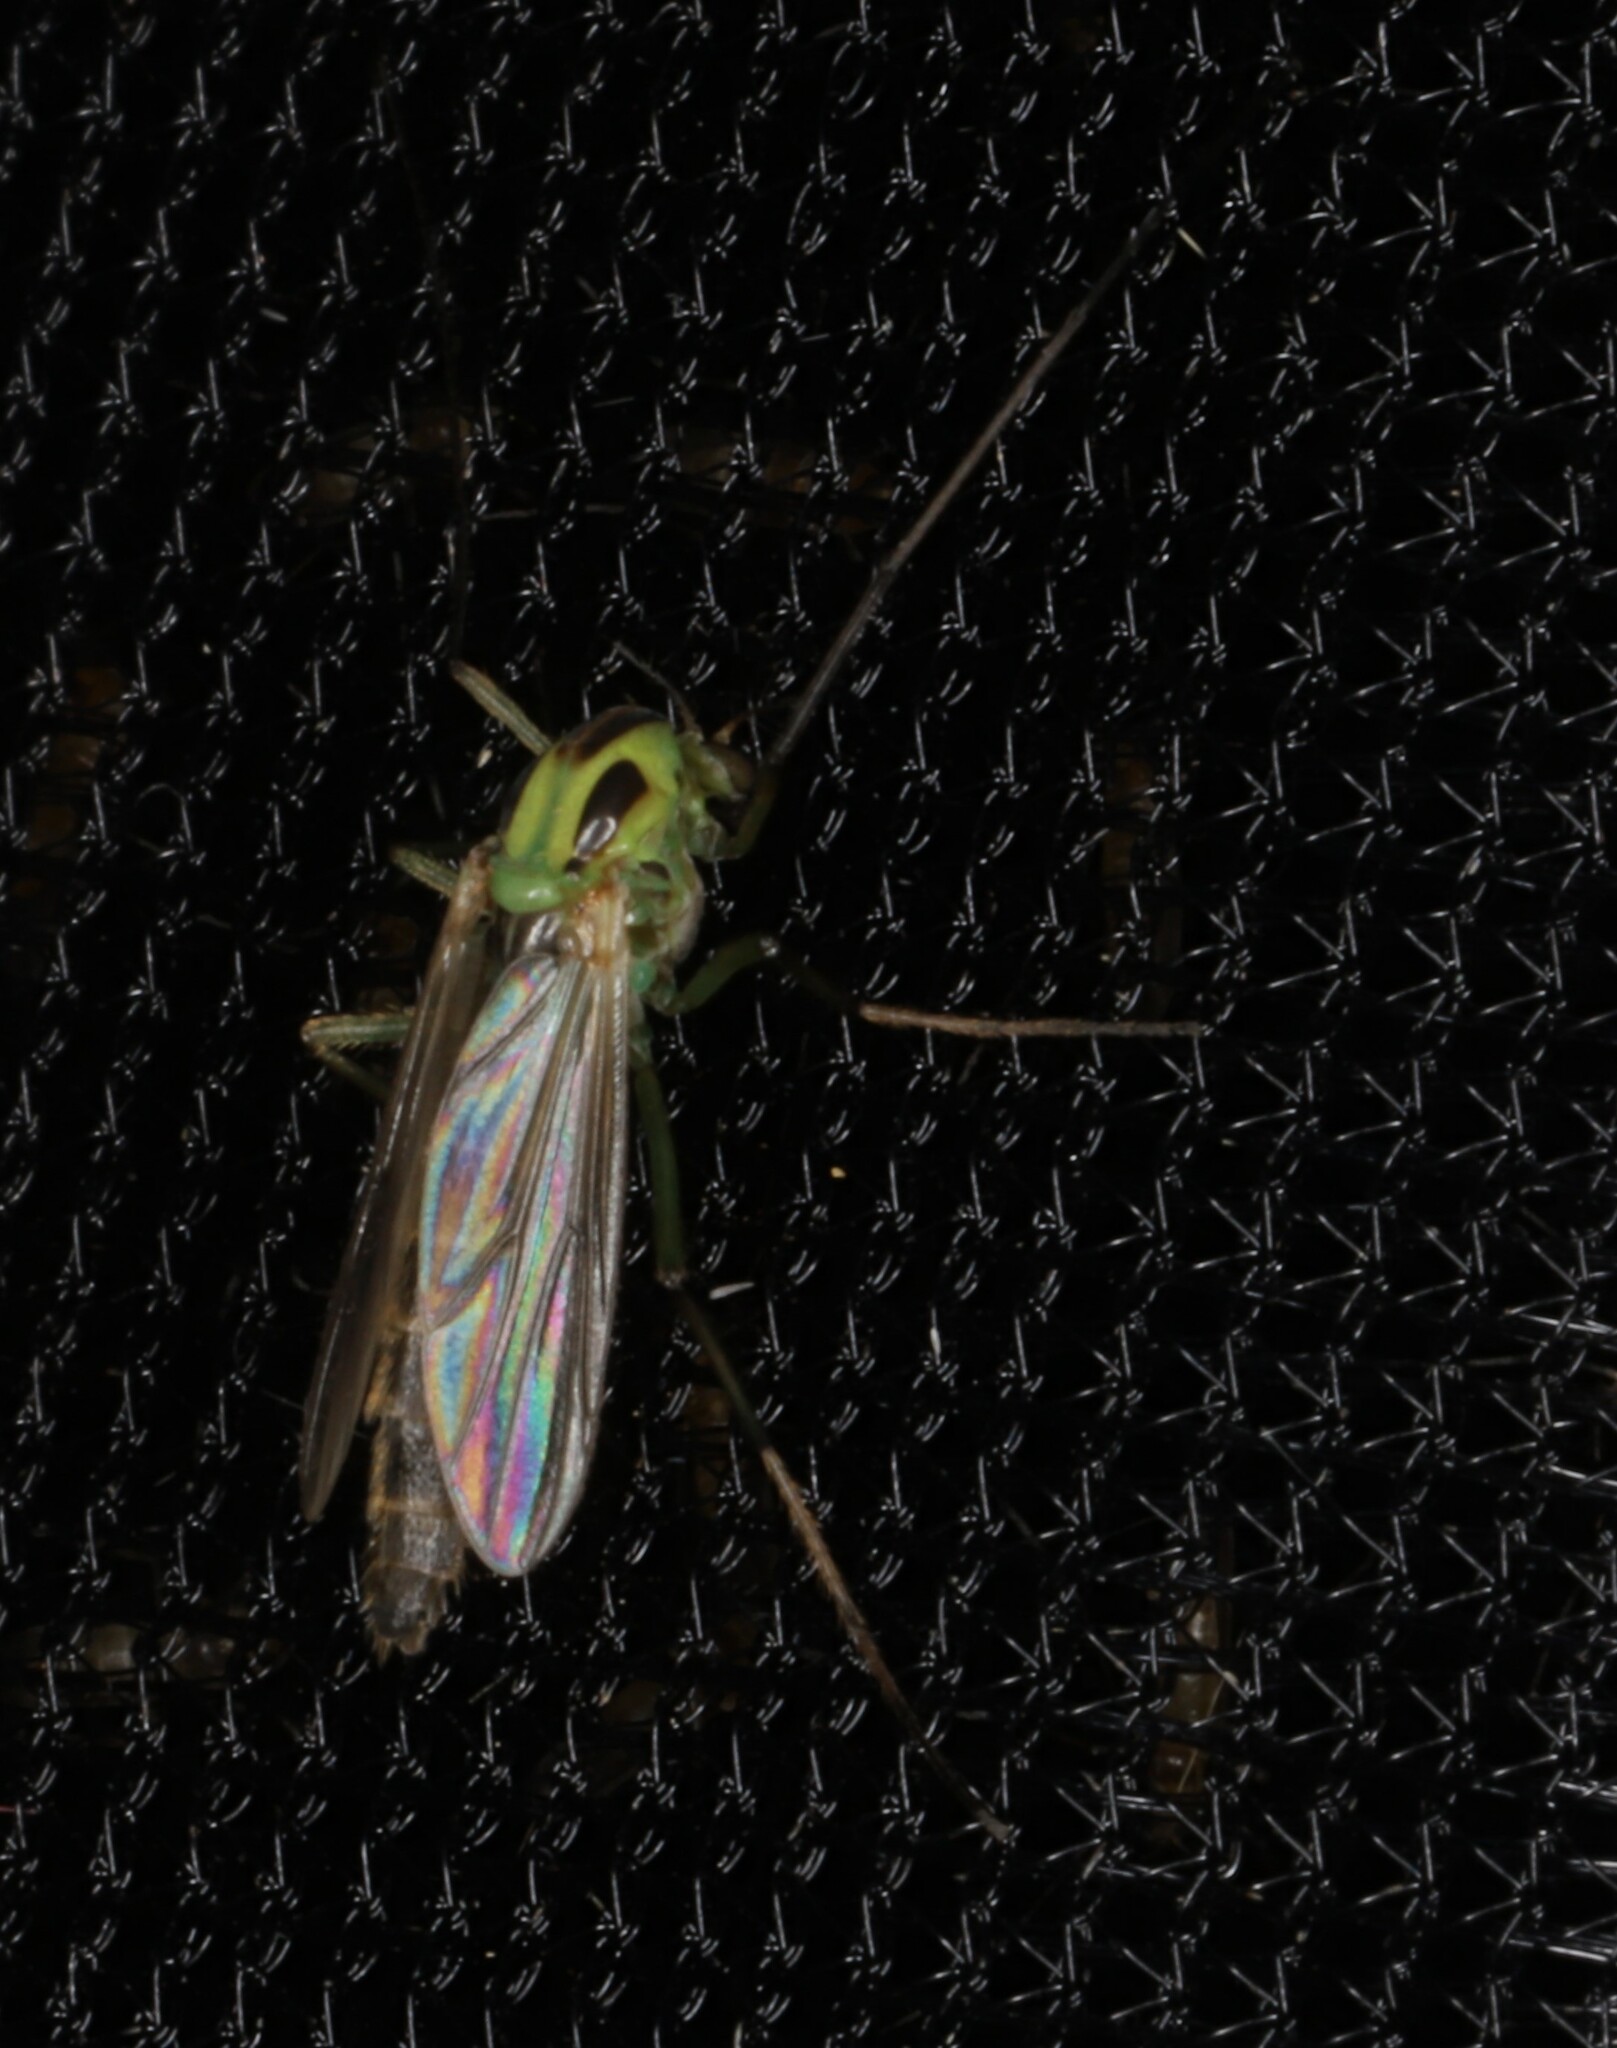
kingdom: Animalia
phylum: Arthropoda
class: Insecta
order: Diptera
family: Chironomidae
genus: Chironomus
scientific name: Chironomus atroviridis
